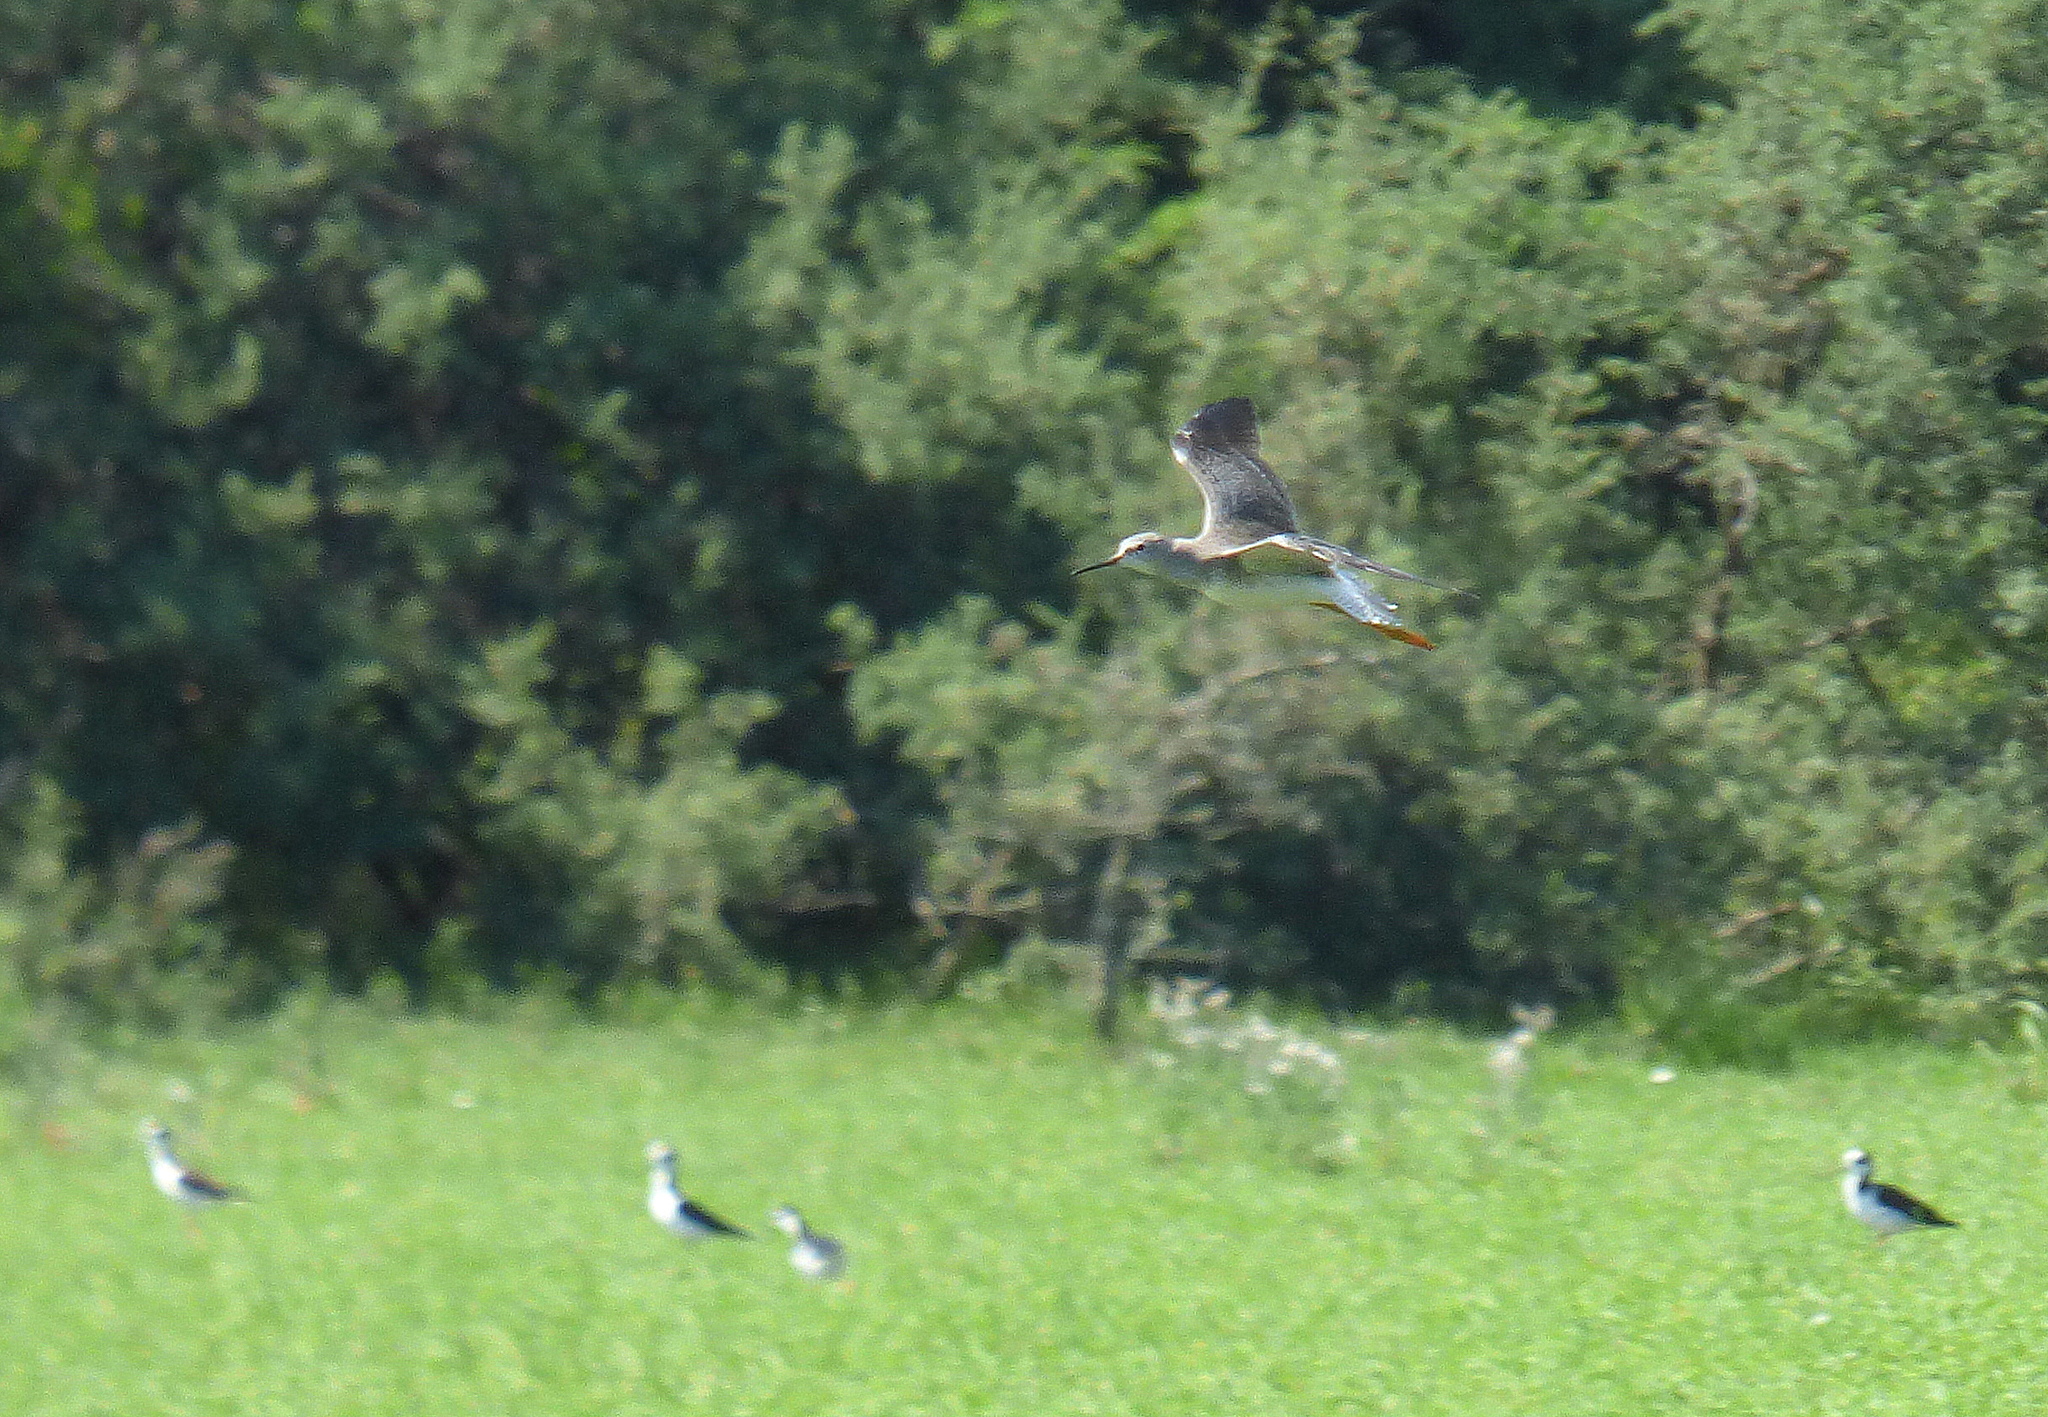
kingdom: Animalia
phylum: Chordata
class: Aves
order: Charadriiformes
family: Scolopacidae
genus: Tringa
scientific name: Tringa flavipes
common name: Lesser yellowlegs
